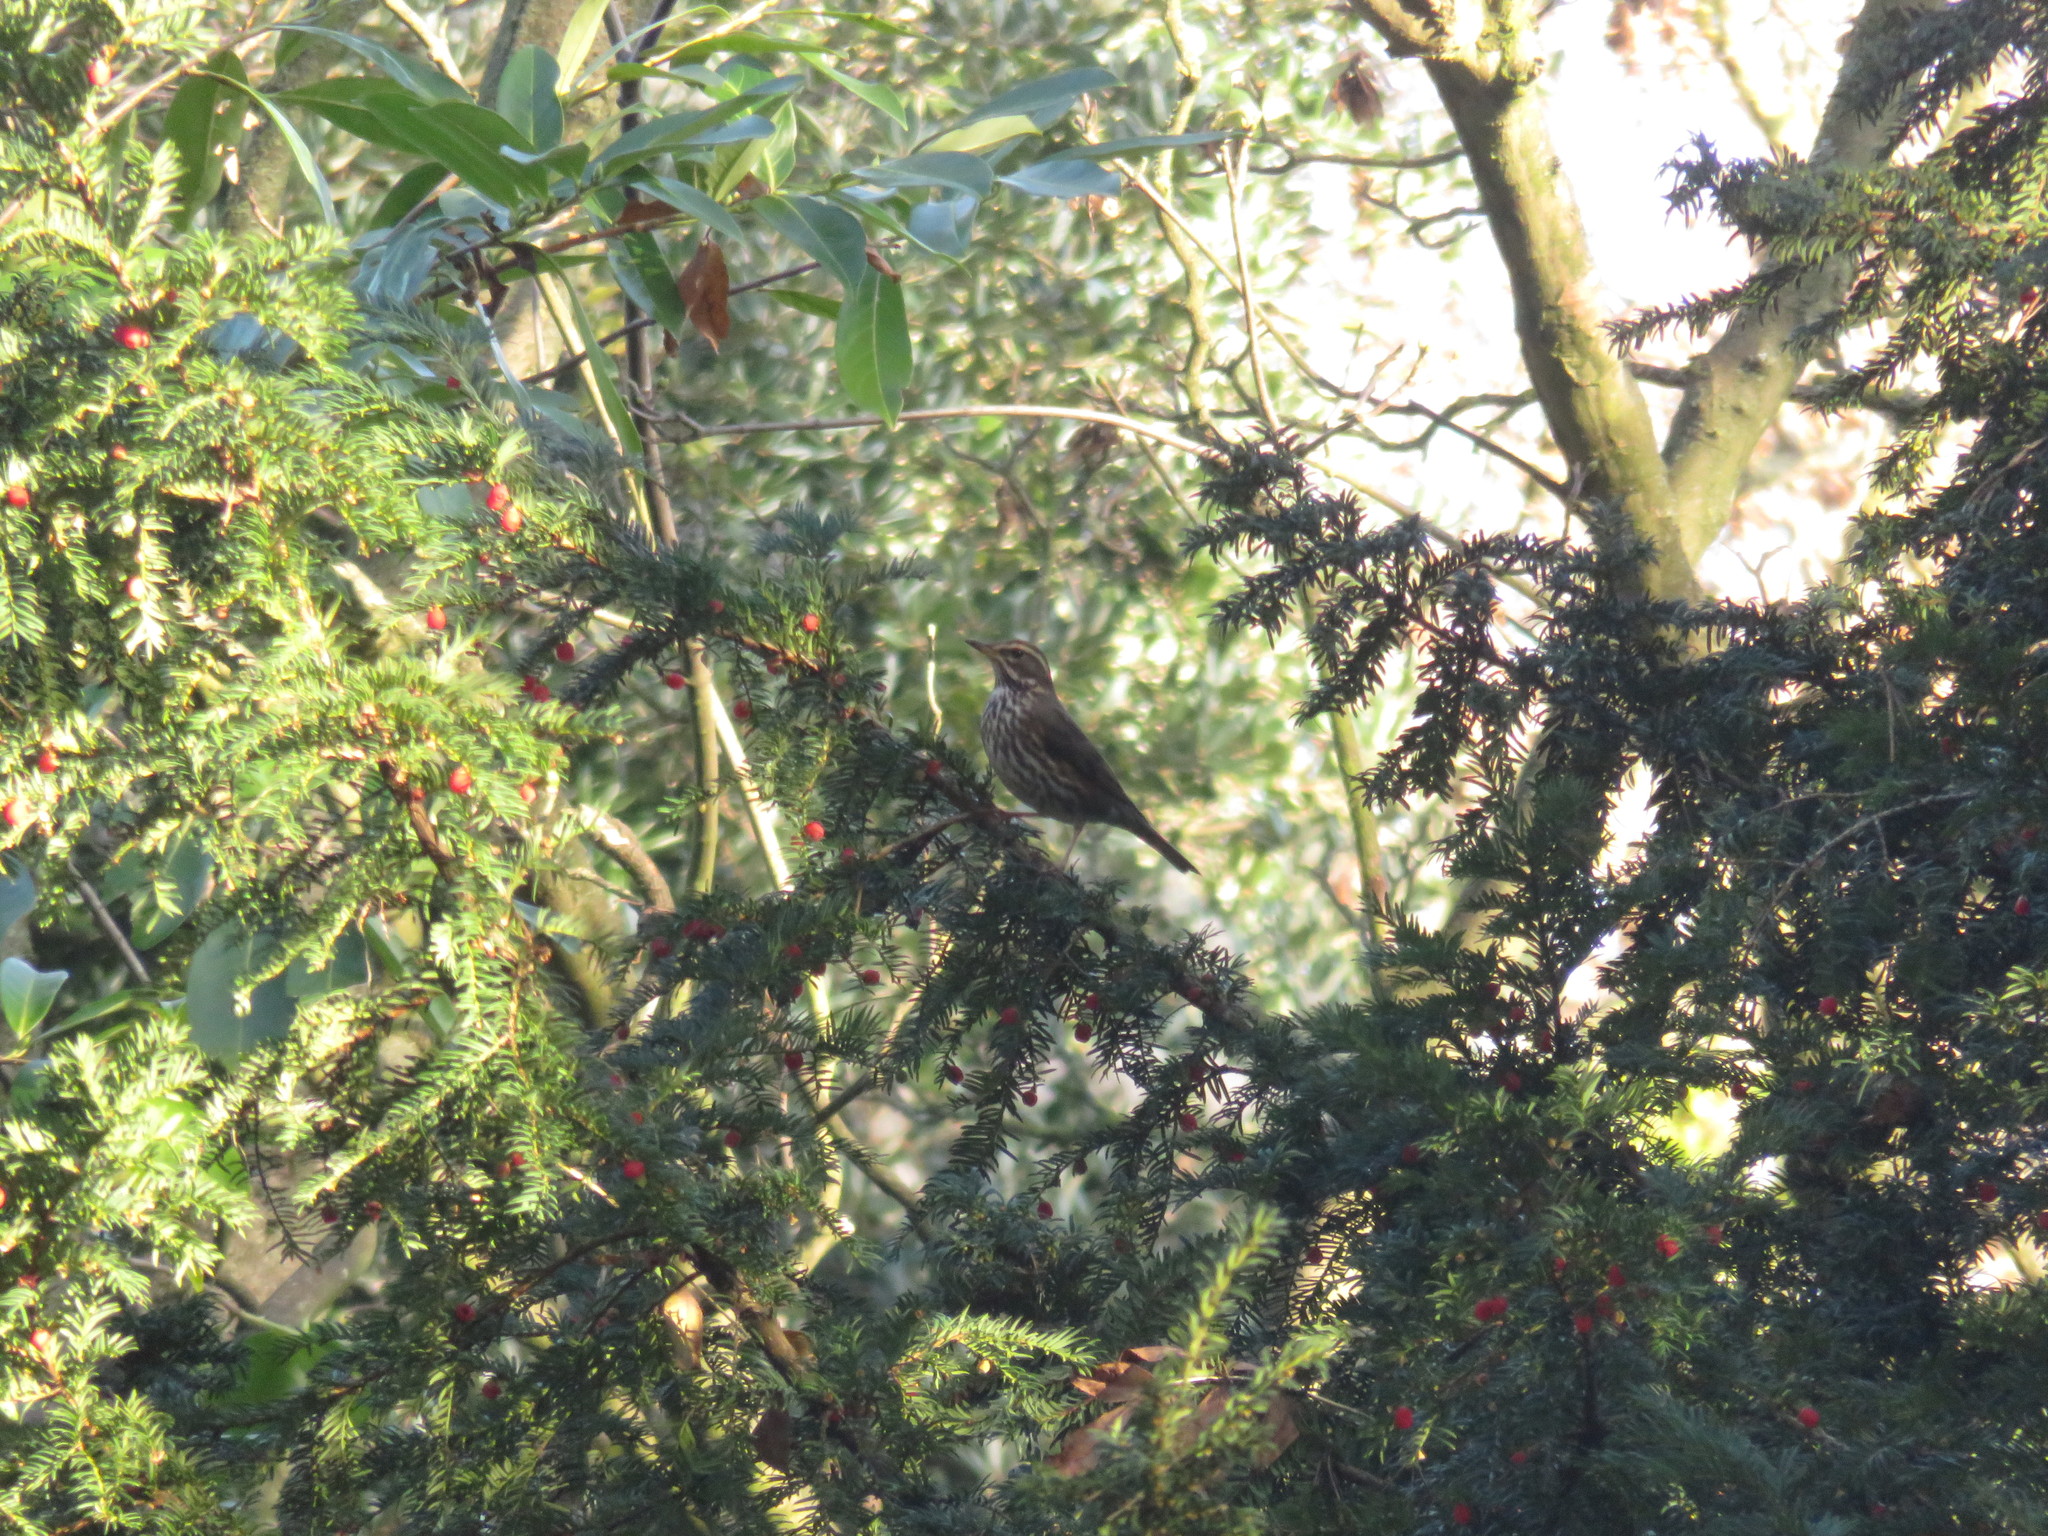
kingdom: Animalia
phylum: Chordata
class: Aves
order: Passeriformes
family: Turdidae
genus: Turdus
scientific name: Turdus iliacus
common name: Redwing
